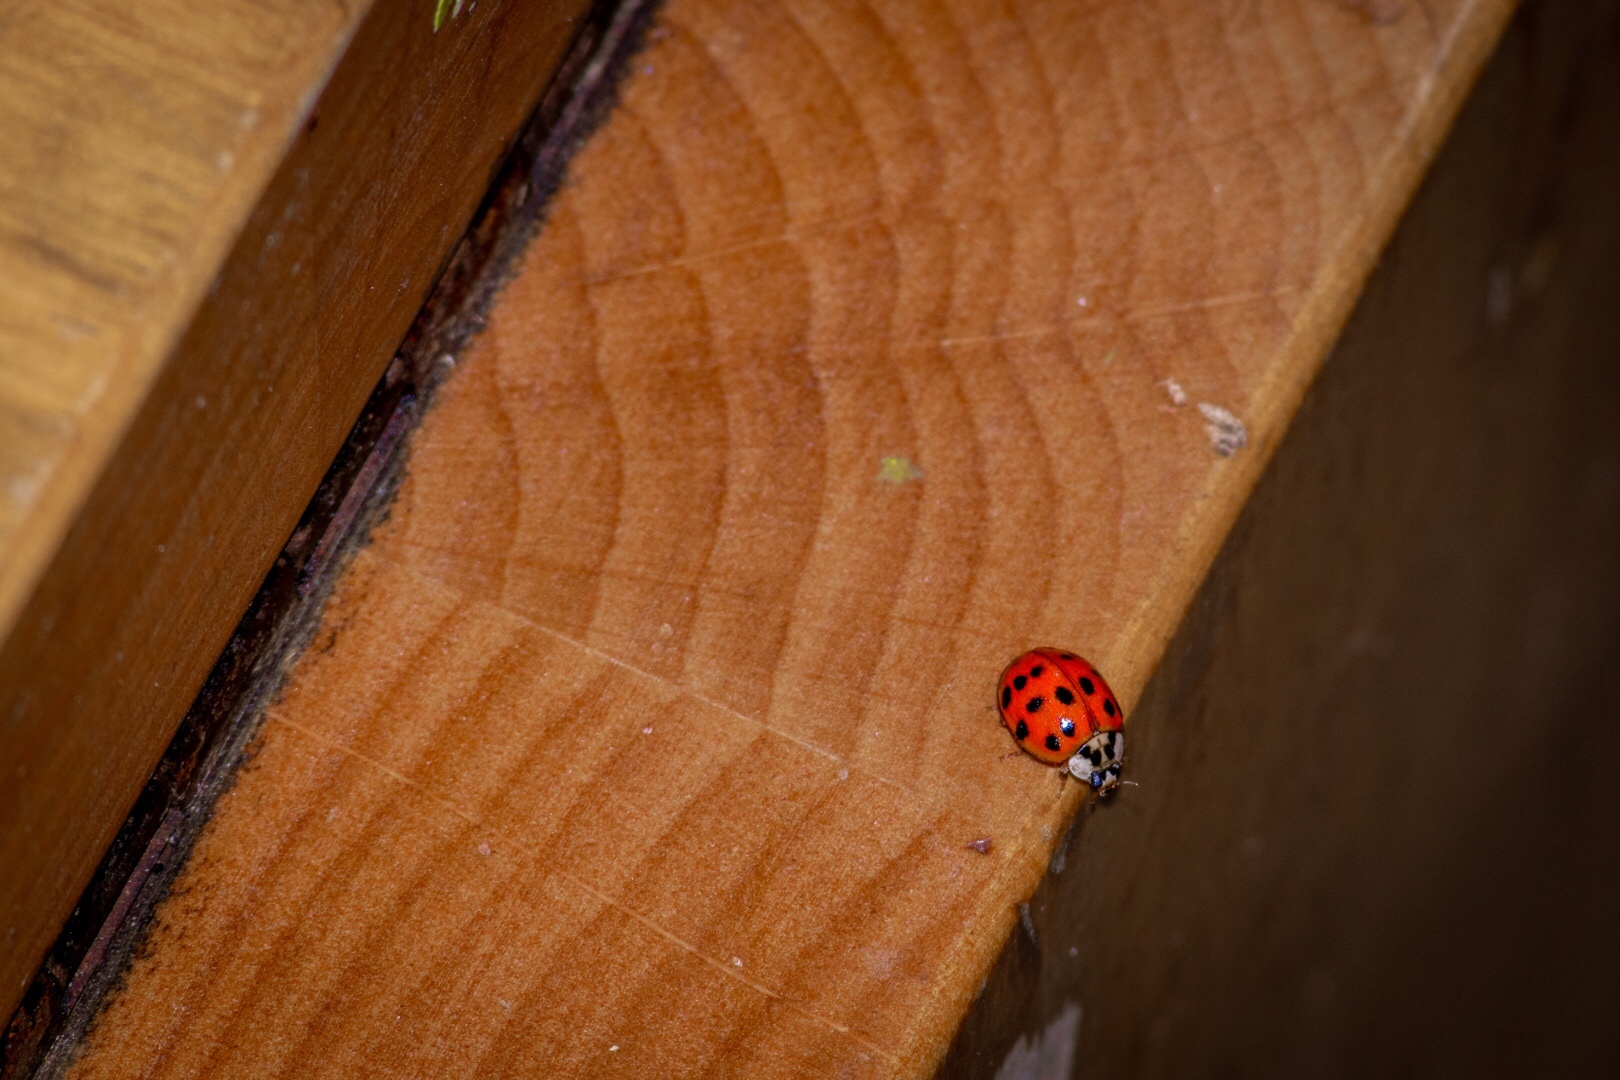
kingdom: Animalia
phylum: Arthropoda
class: Insecta
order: Coleoptera
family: Coccinellidae
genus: Harmonia
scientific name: Harmonia axyridis
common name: Harlequin ladybird
